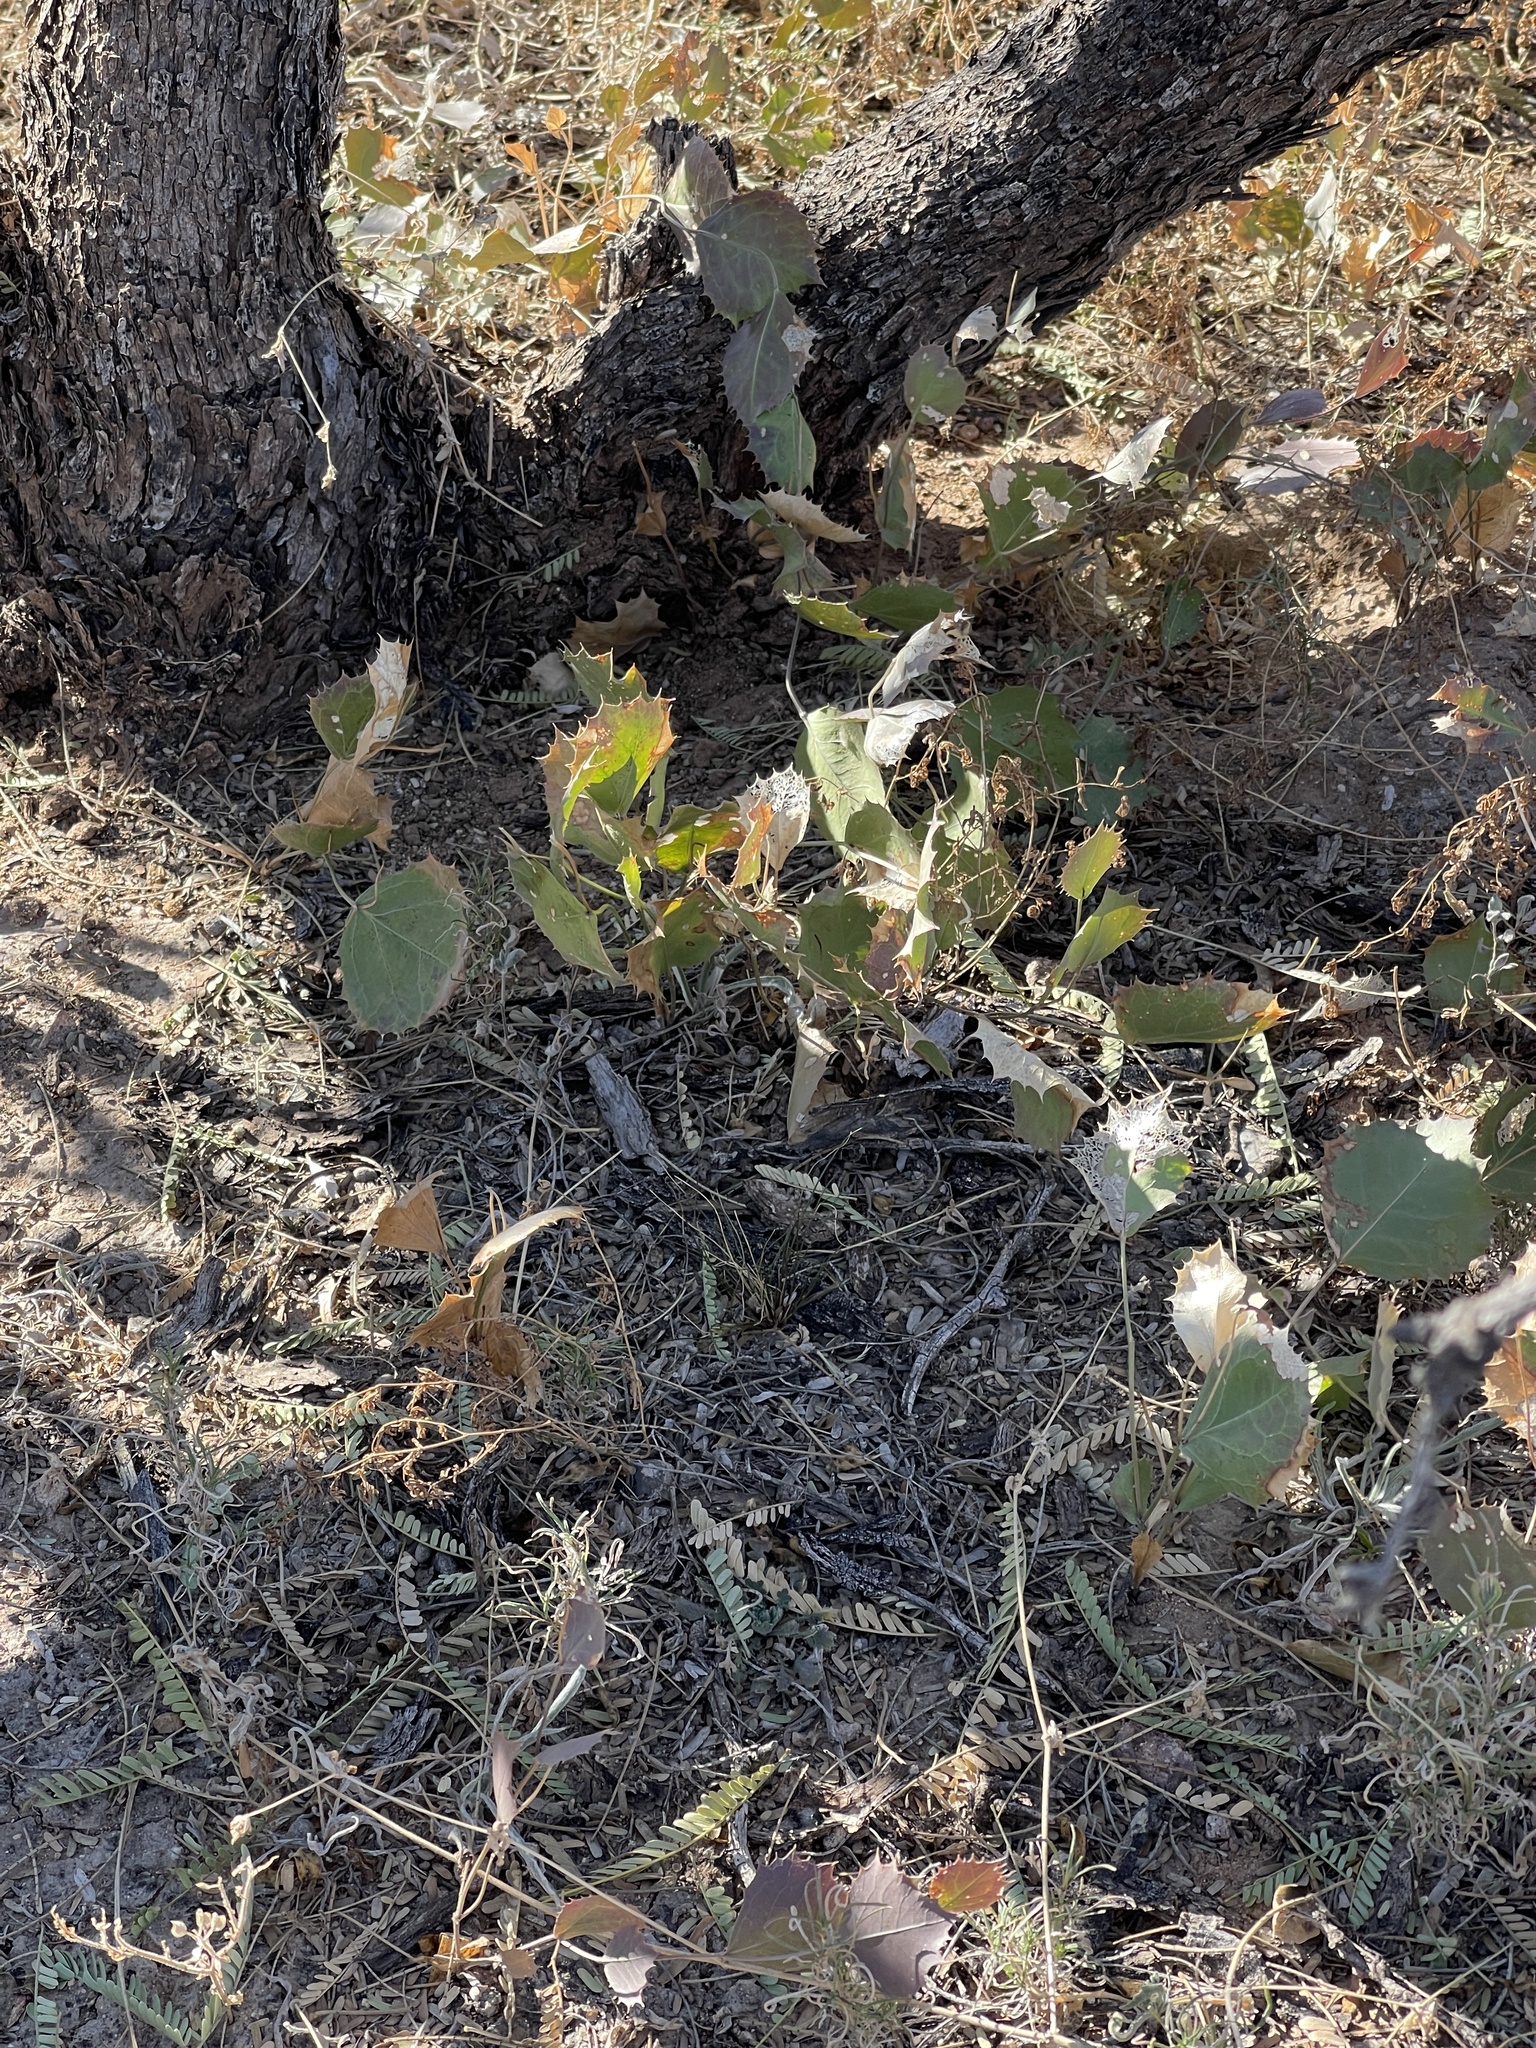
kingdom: Plantae
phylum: Tracheophyta
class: Magnoliopsida
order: Asterales
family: Asteraceae
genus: Acourtia
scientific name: Acourtia nana
